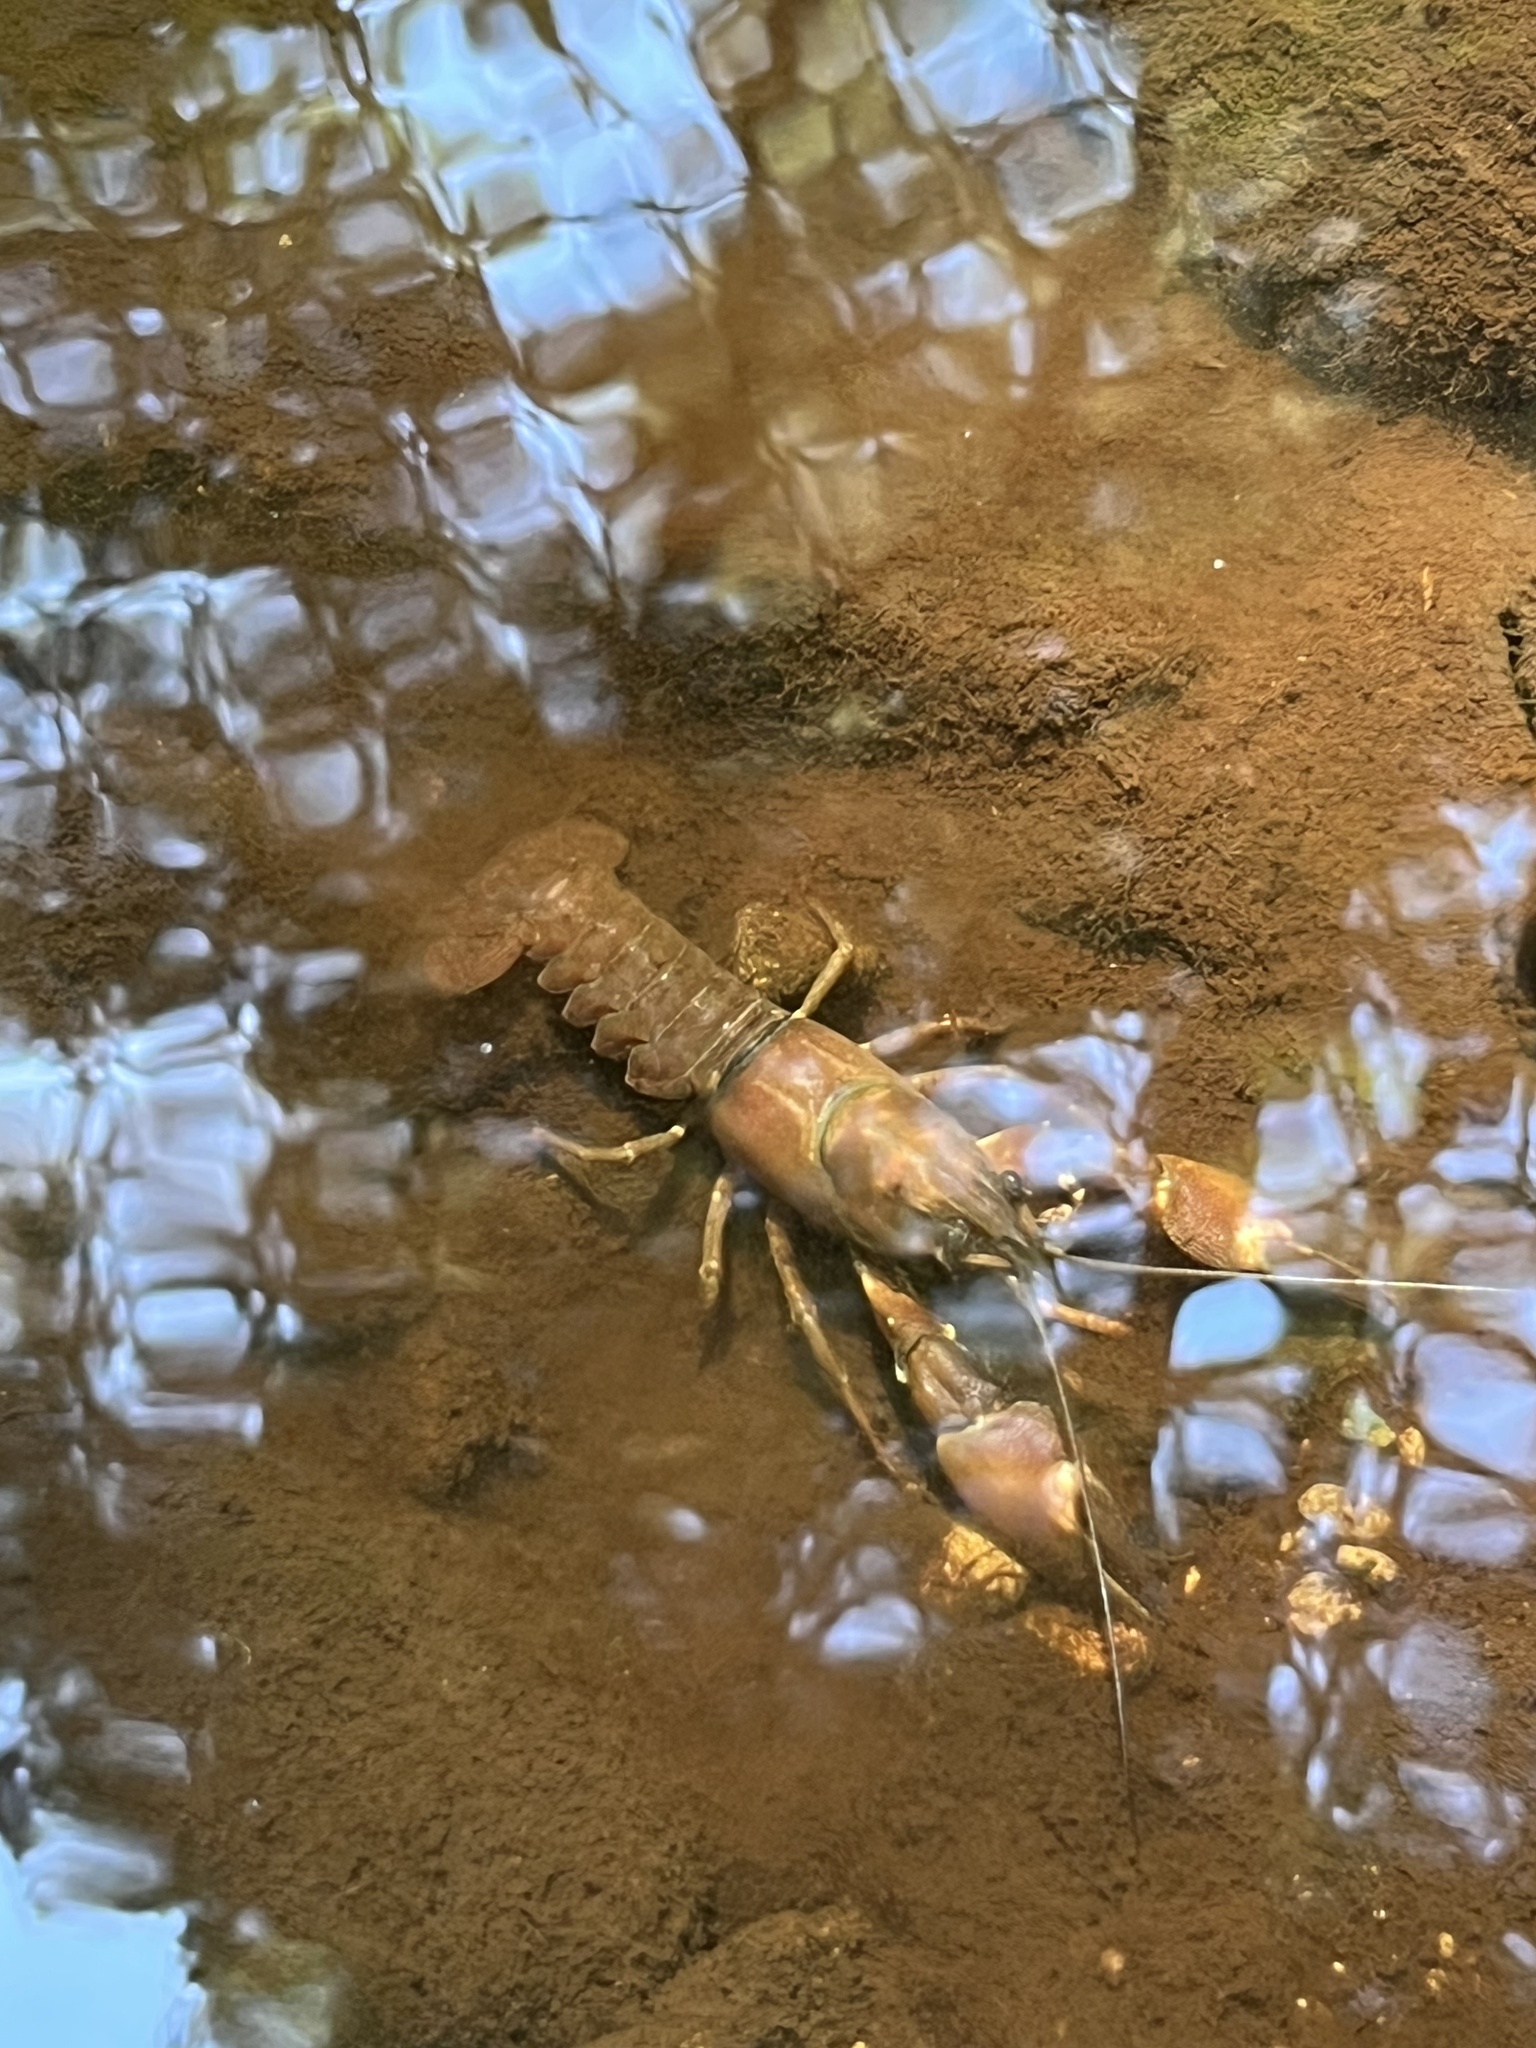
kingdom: Animalia
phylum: Arthropoda
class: Malacostraca
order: Decapoda
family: Astacidae
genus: Pacifastacus
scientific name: Pacifastacus leniusculus
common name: Signal crayfish
